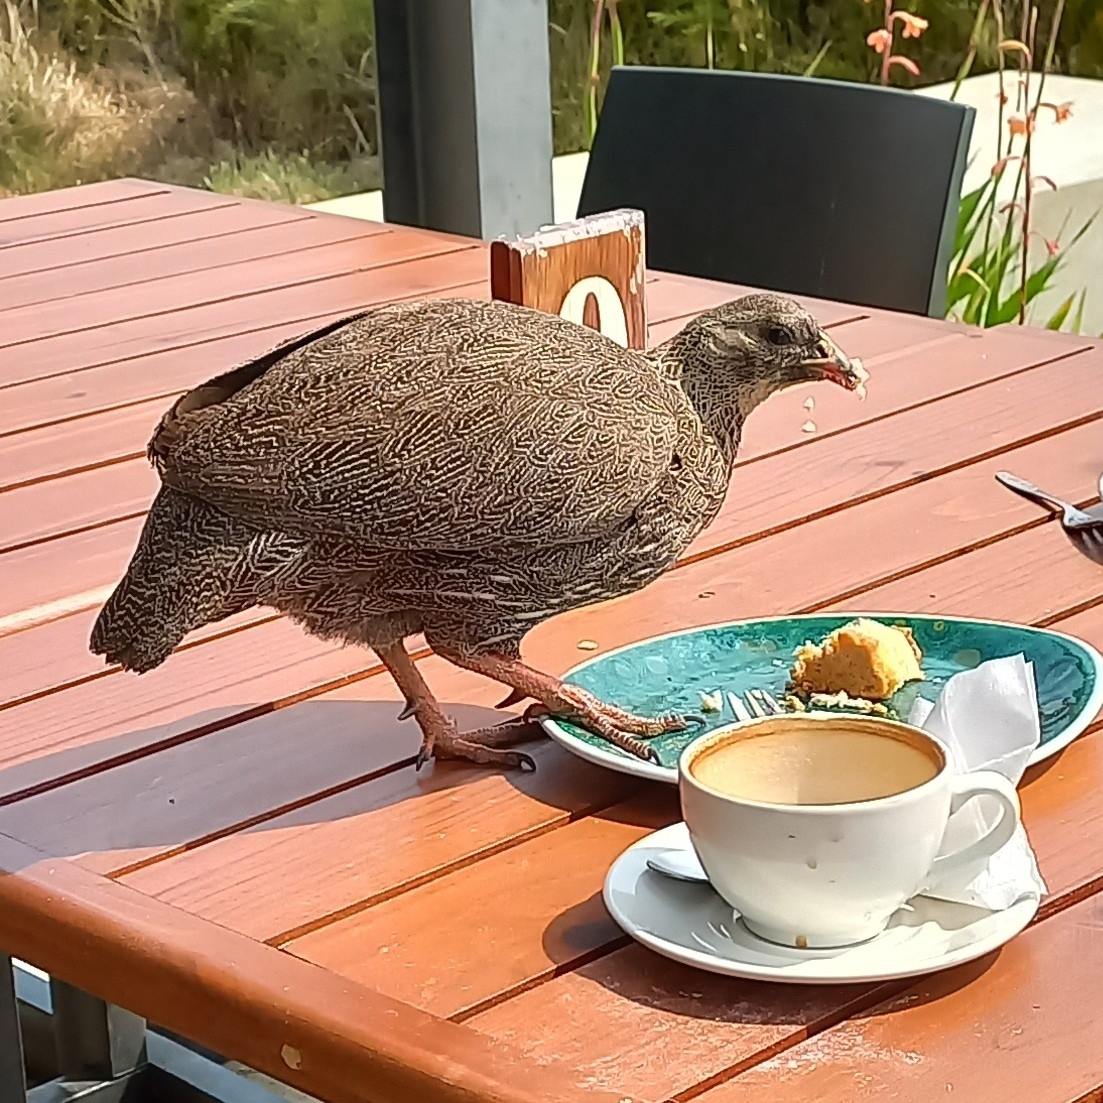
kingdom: Animalia
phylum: Chordata
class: Aves
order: Galliformes
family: Phasianidae
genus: Pternistis
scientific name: Pternistis capensis
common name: Cape spurfowl
